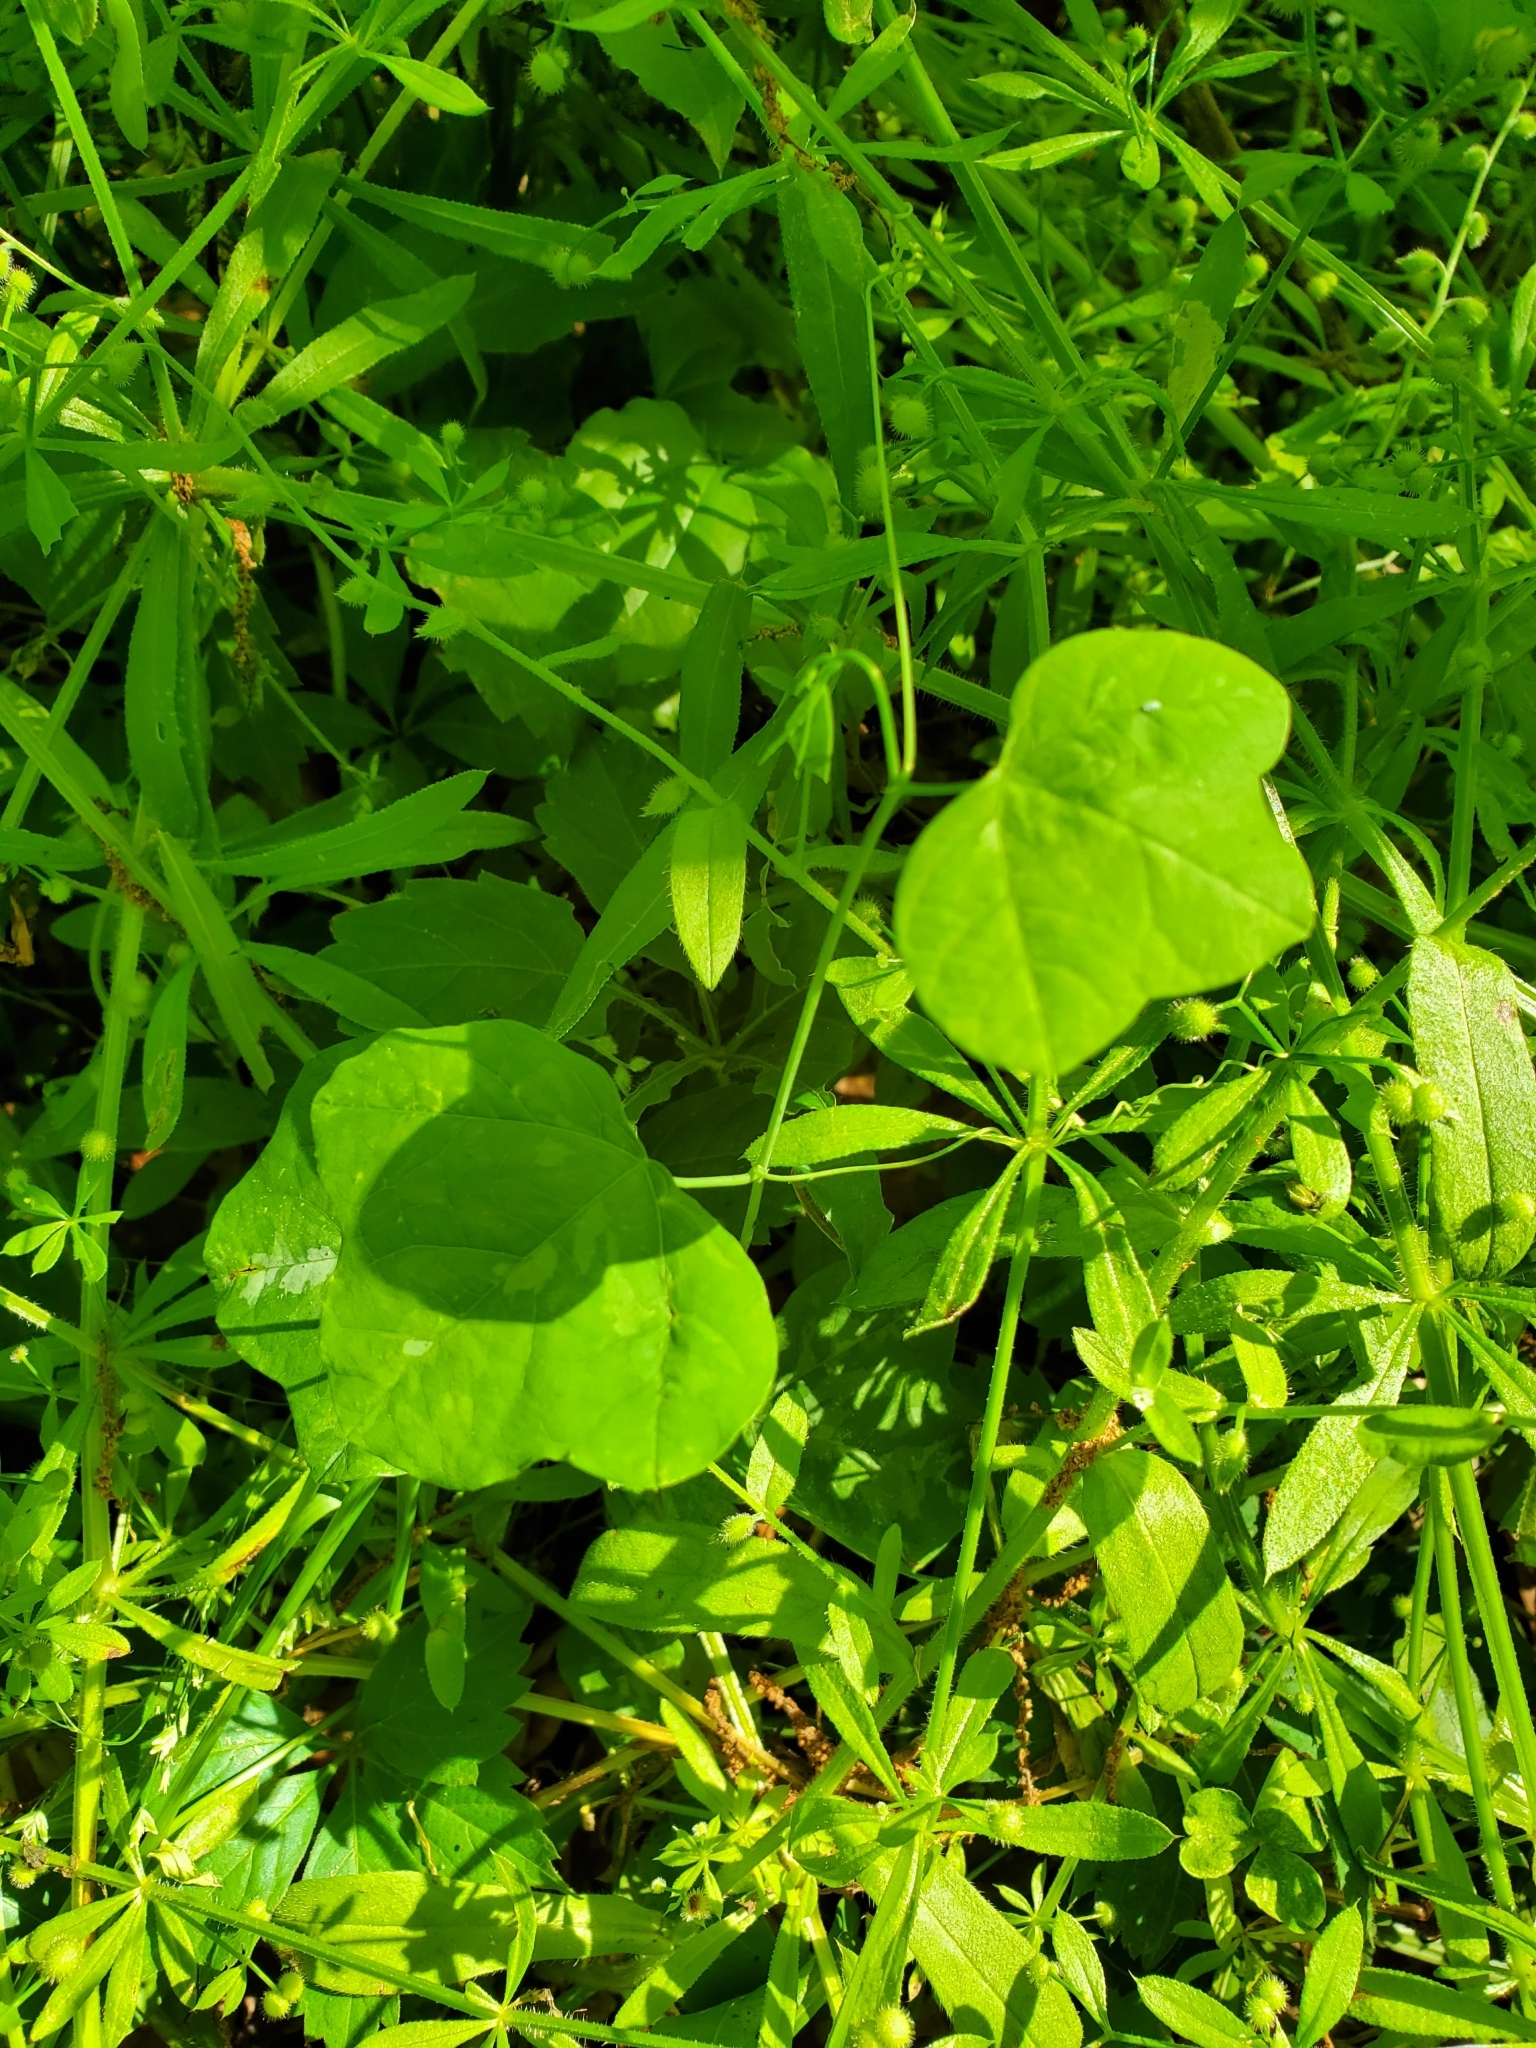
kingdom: Plantae
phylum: Tracheophyta
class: Magnoliopsida
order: Malpighiales
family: Passifloraceae
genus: Passiflora
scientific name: Passiflora lutea
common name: Yellow passionflower
